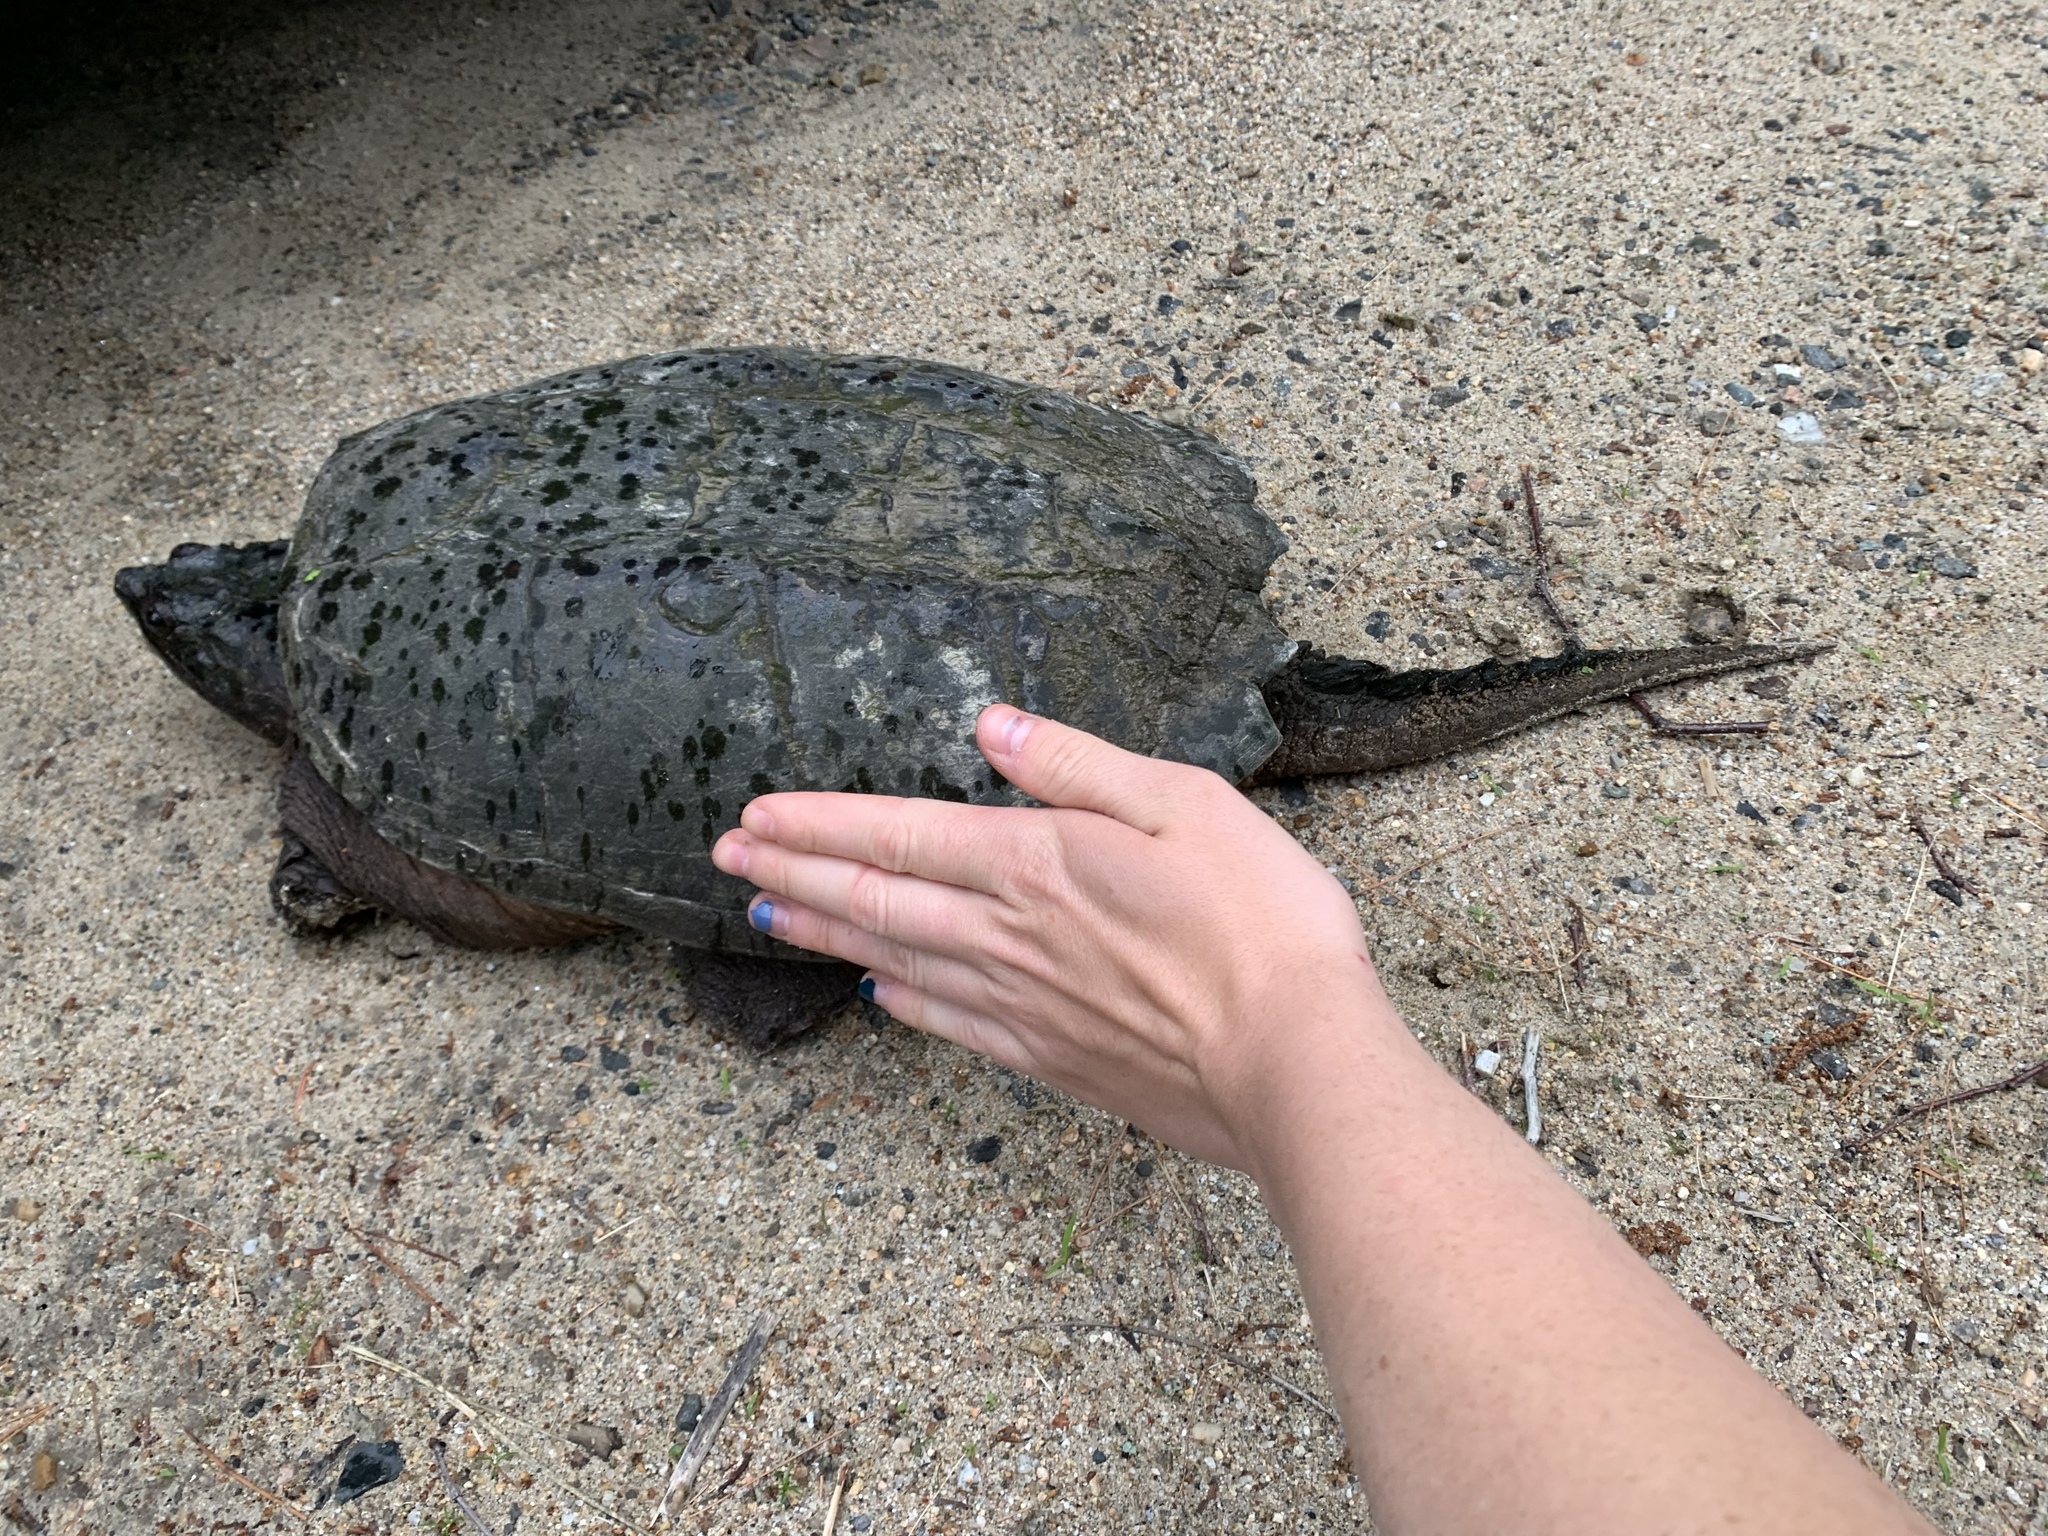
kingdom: Animalia
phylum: Chordata
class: Testudines
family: Chelydridae
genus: Chelydra
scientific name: Chelydra serpentina
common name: Common snapping turtle
